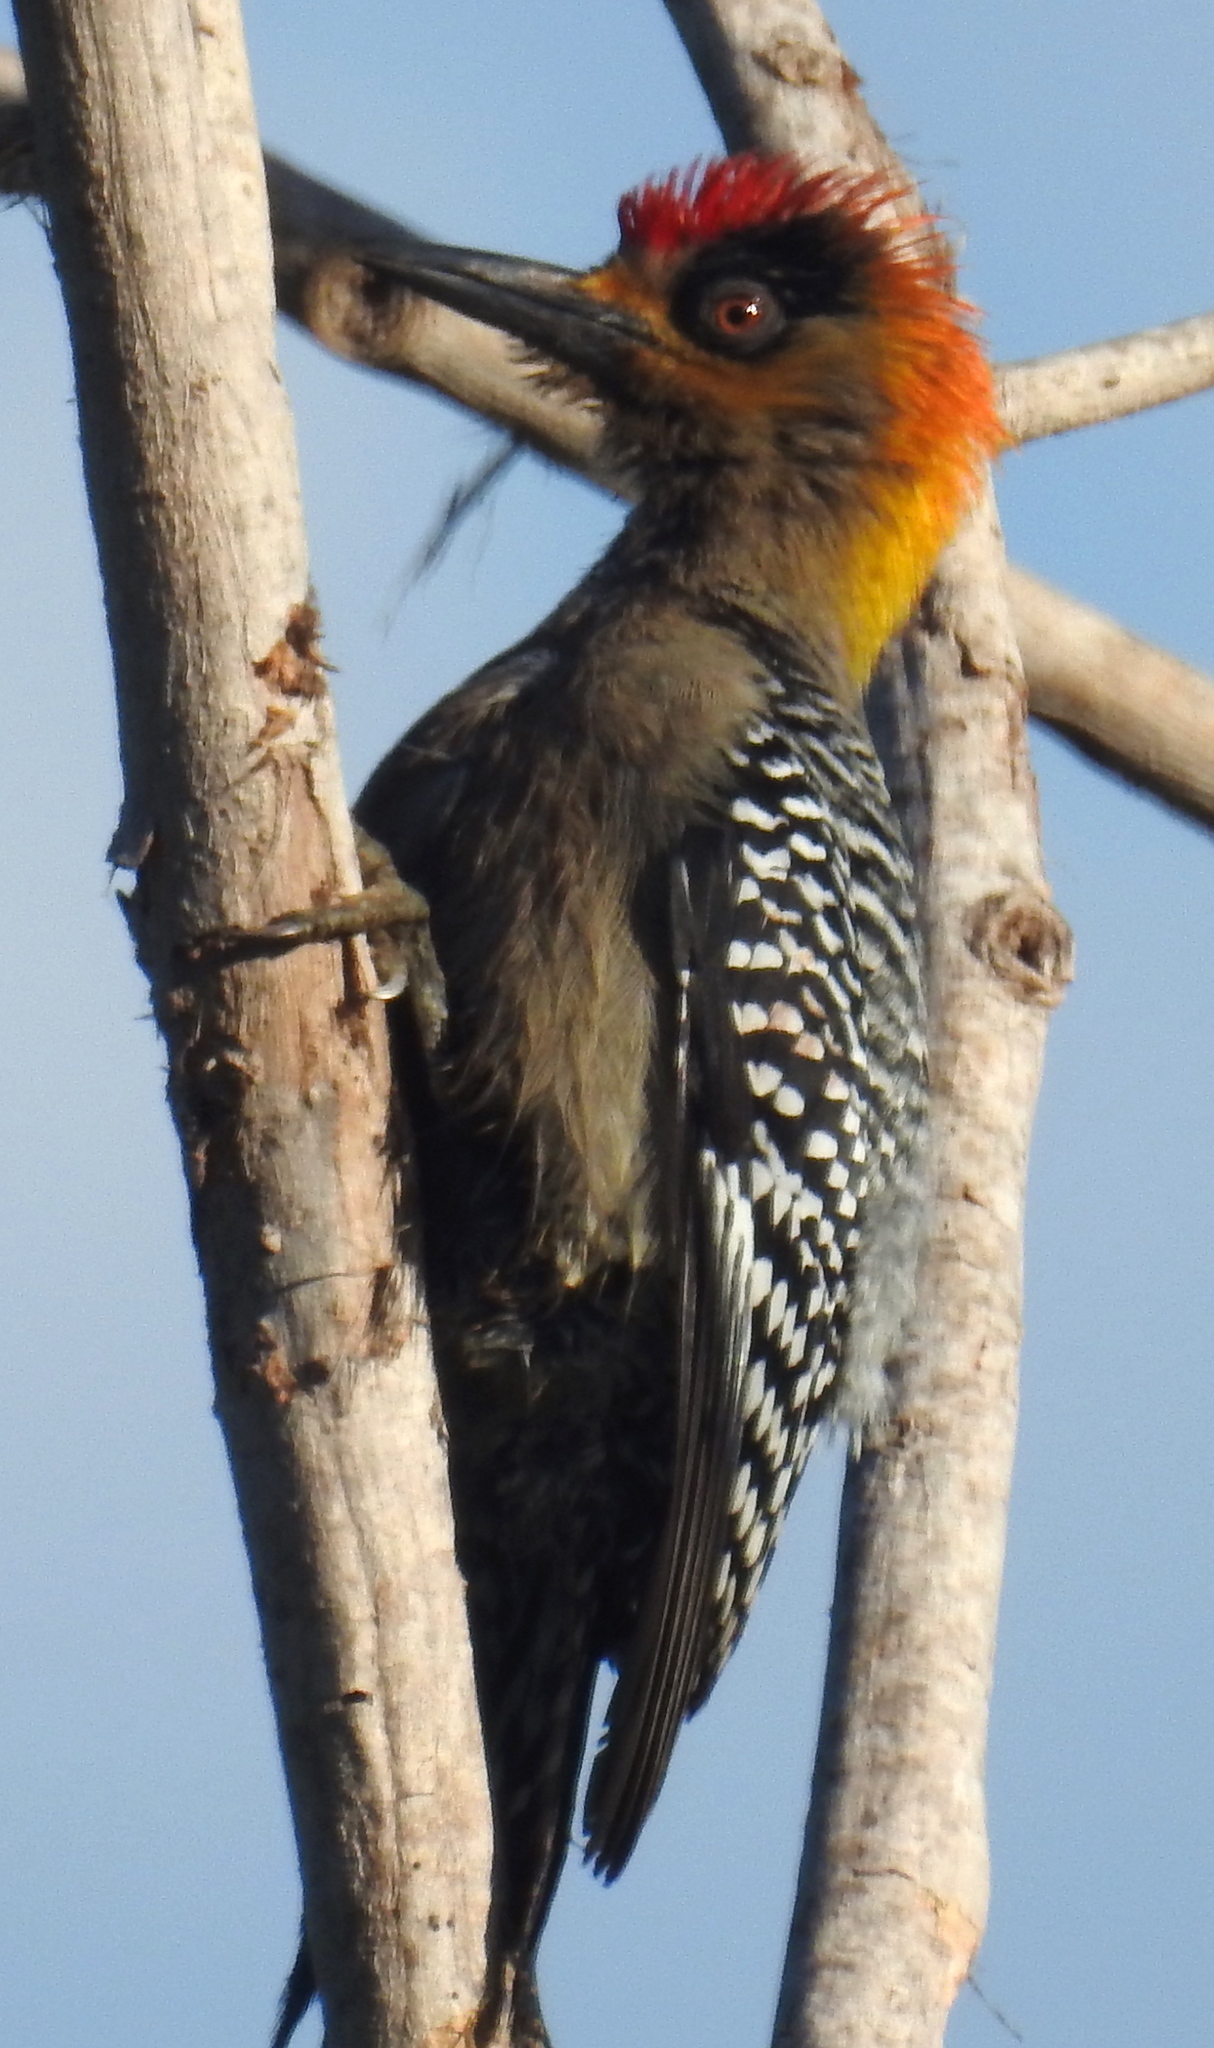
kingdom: Animalia
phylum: Chordata
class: Aves
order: Piciformes
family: Picidae
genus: Melanerpes
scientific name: Melanerpes chrysogenys
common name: Golden-cheeked woodpecker
